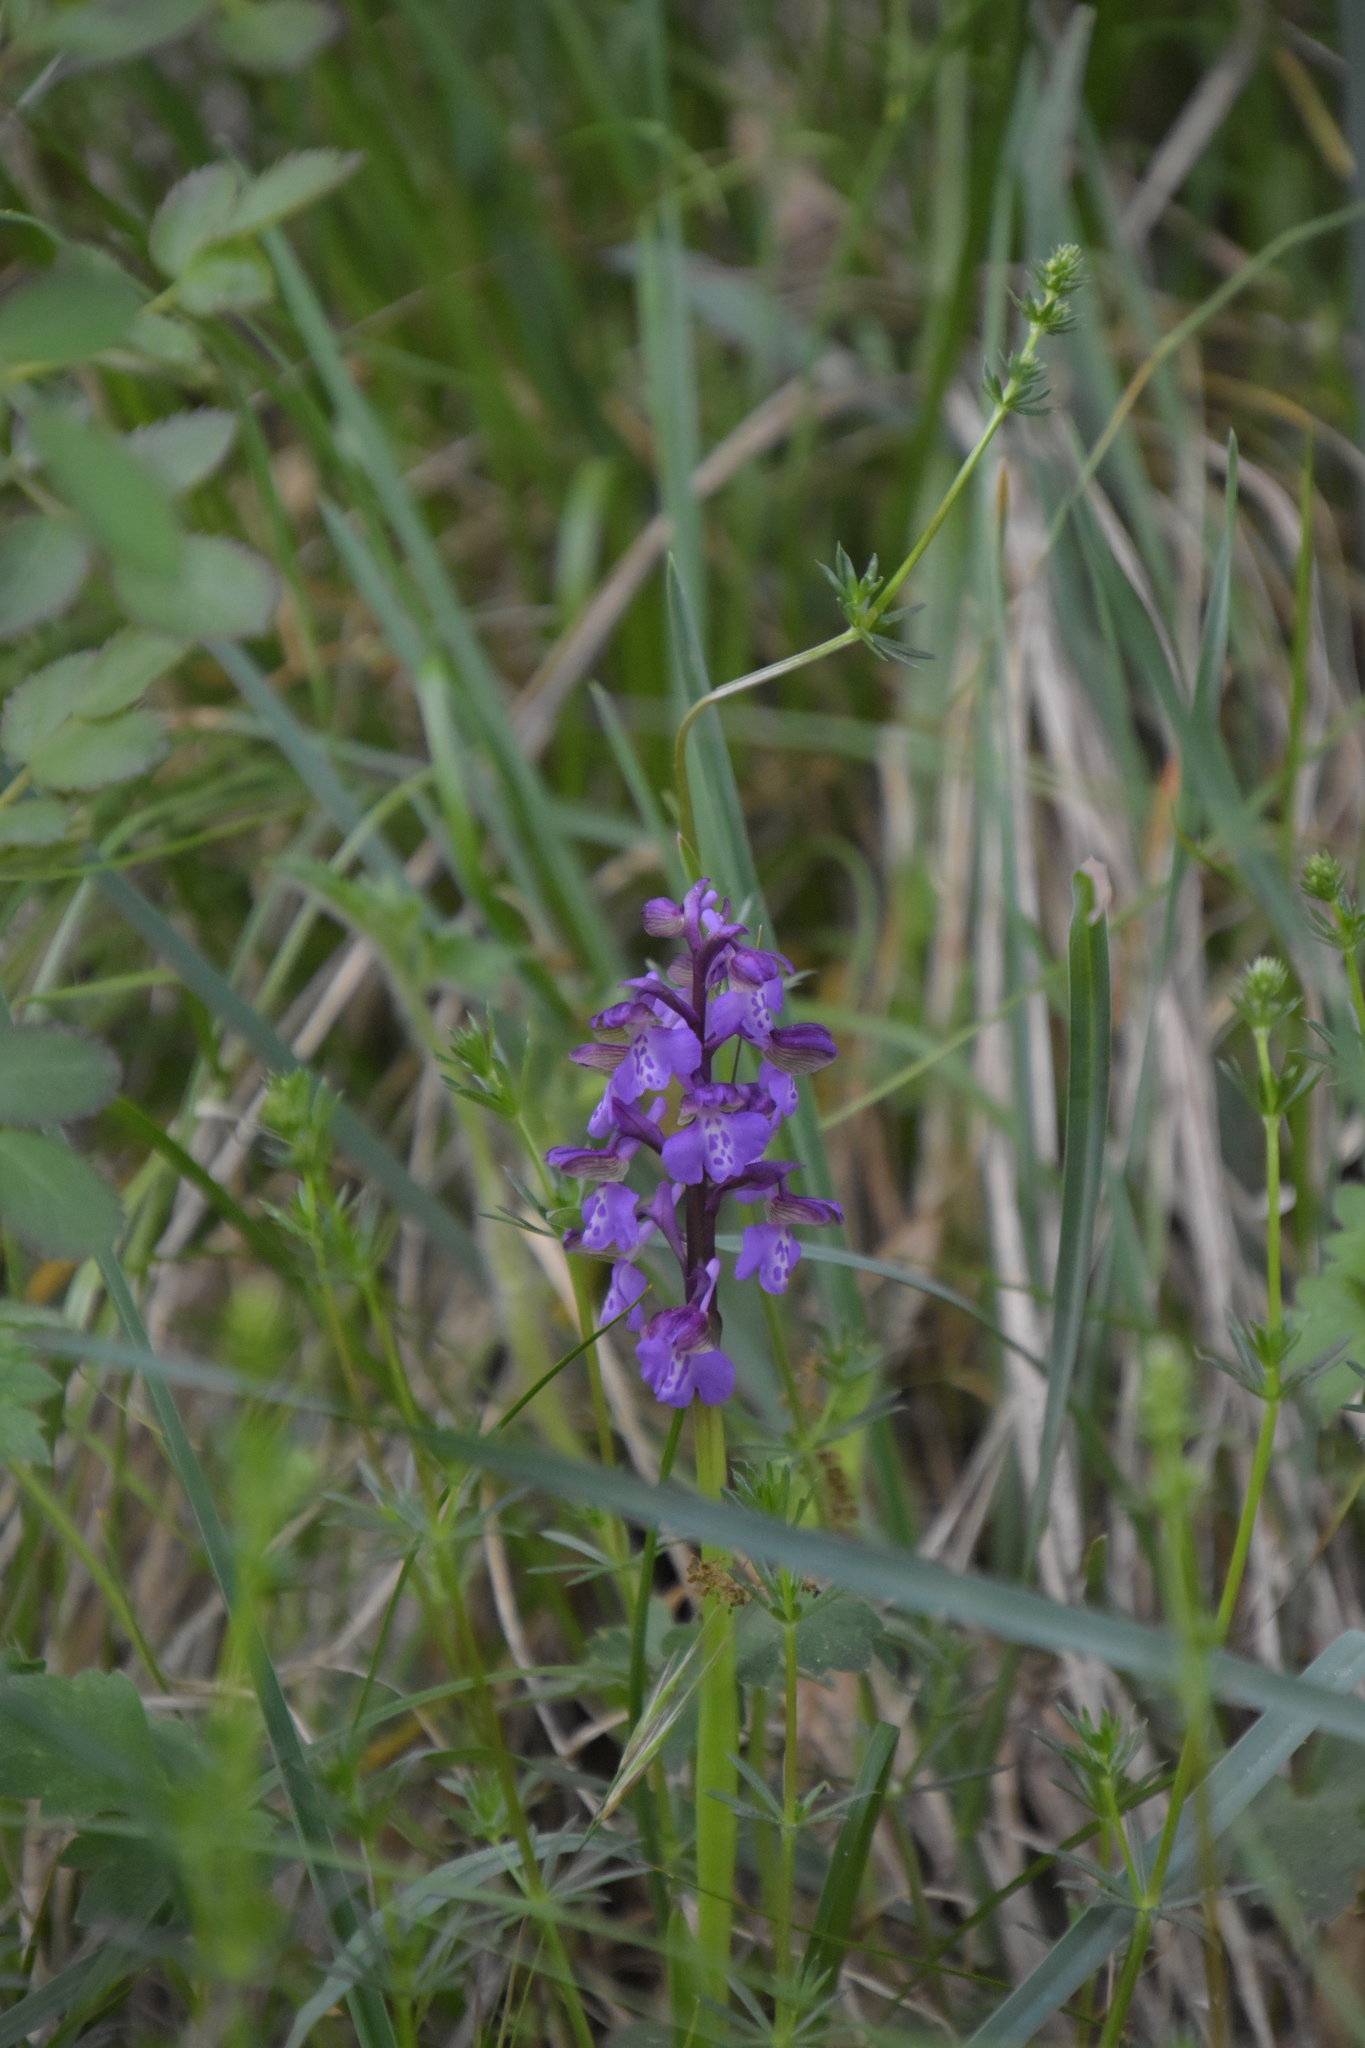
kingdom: Plantae
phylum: Tracheophyta
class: Liliopsida
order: Asparagales
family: Orchidaceae
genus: Anacamptis
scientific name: Anacamptis morio
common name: Green-winged orchid
